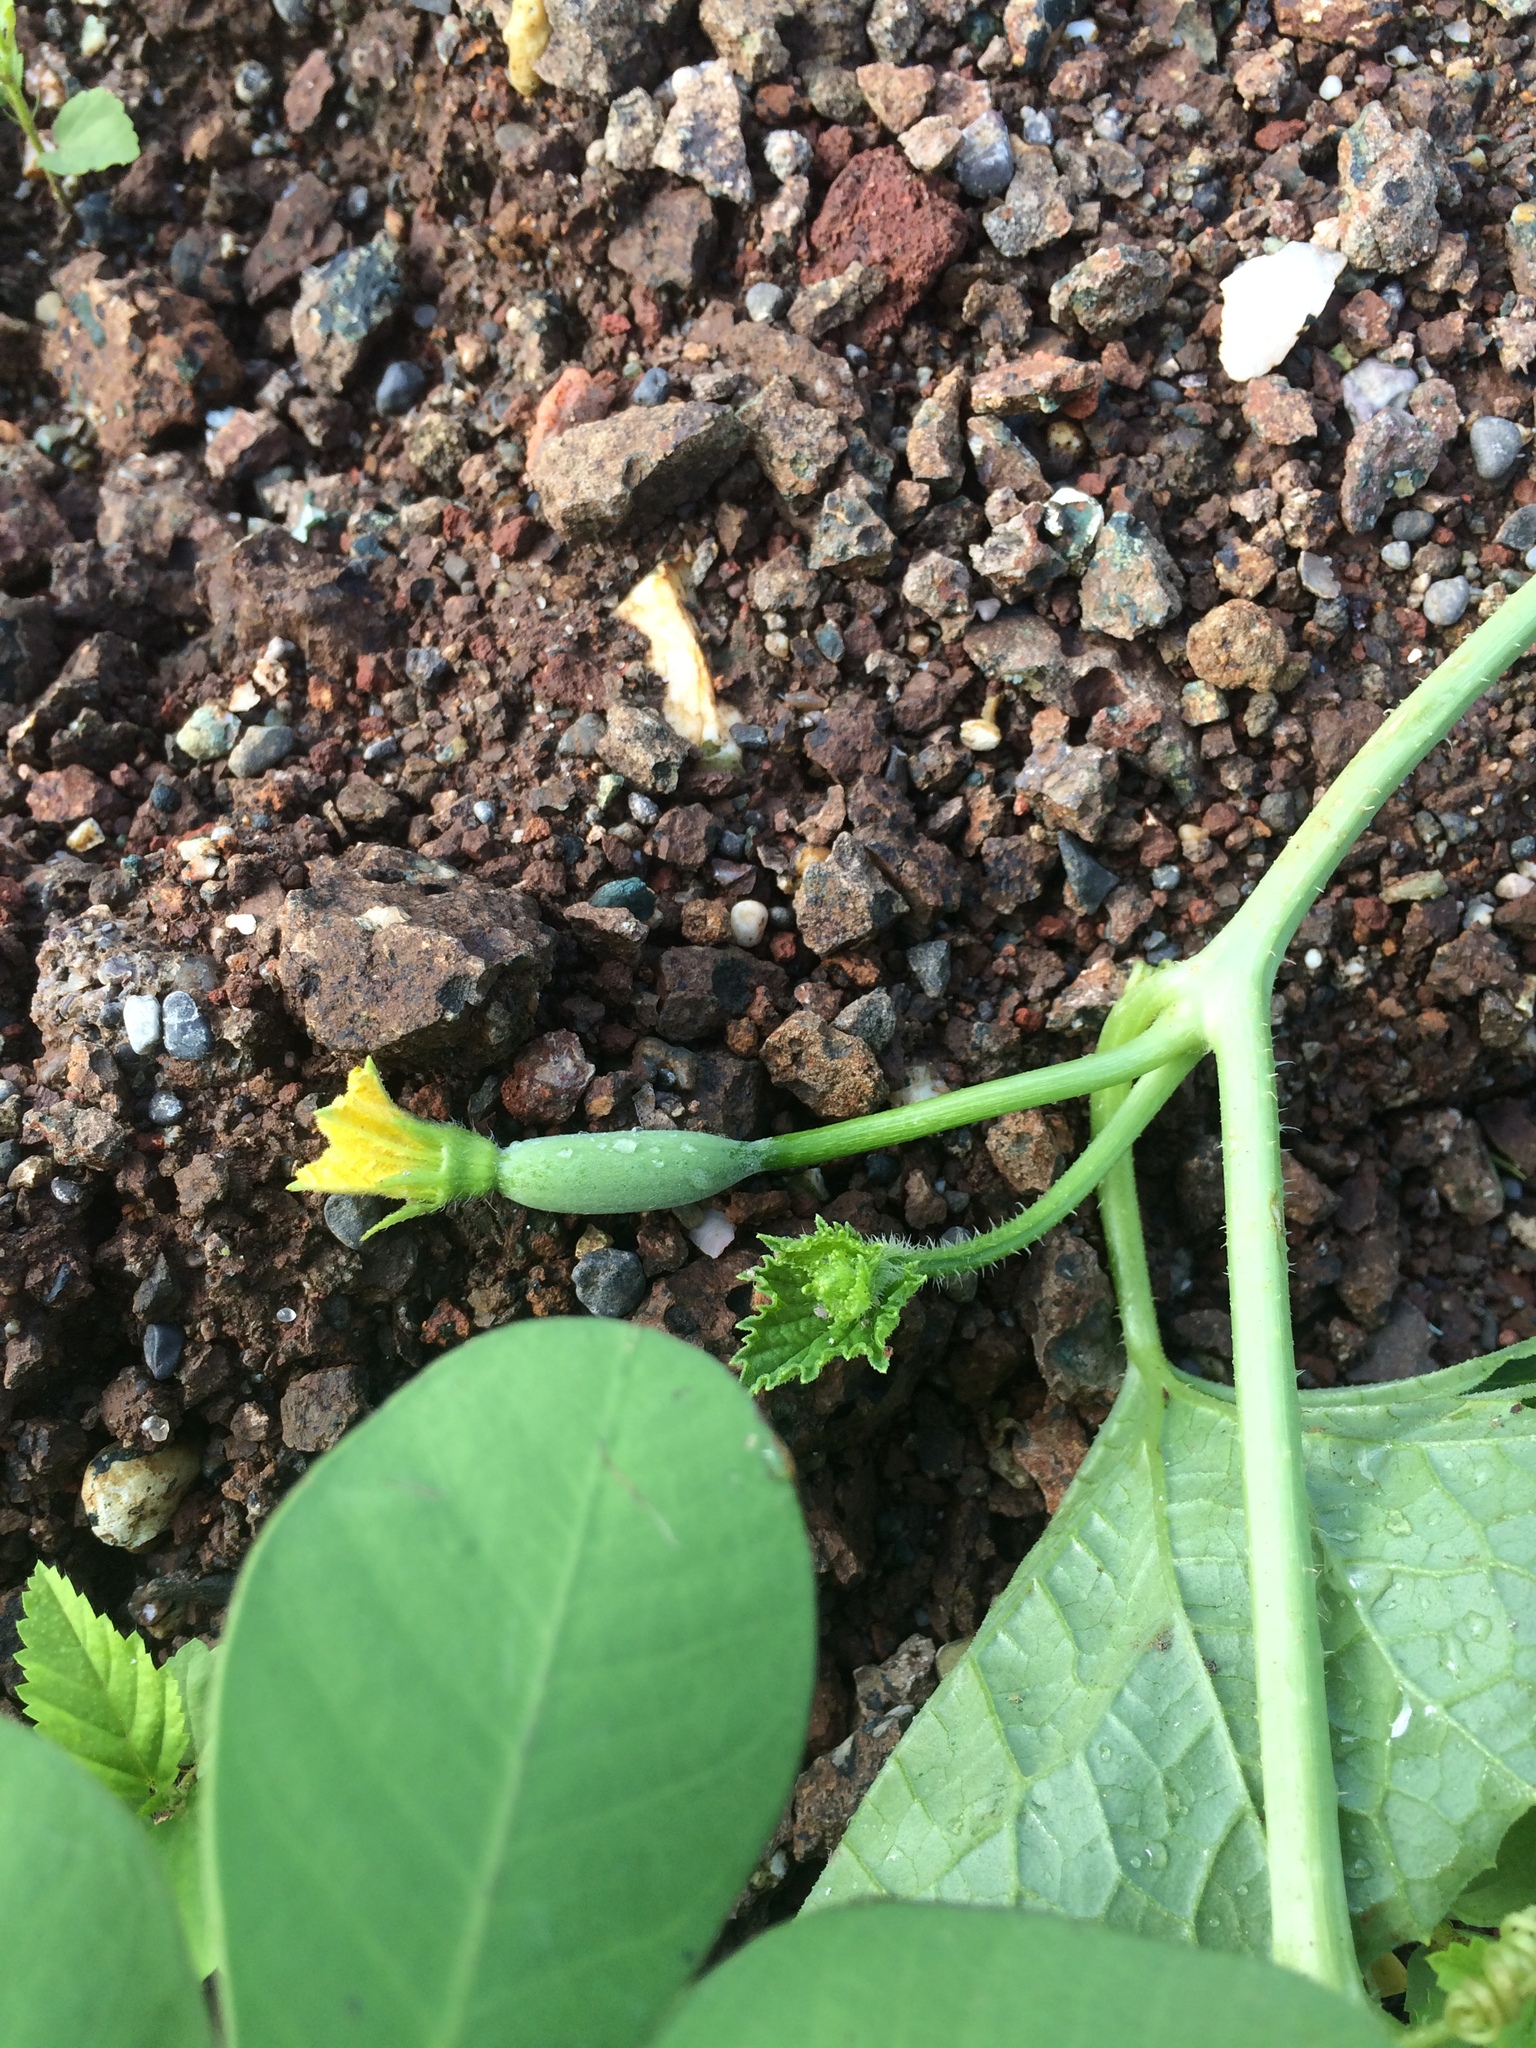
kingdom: Plantae
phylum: Tracheophyta
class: Magnoliopsida
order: Cucurbitales
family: Cucurbitaceae
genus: Cucumis
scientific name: Cucumis melo
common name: Melon
